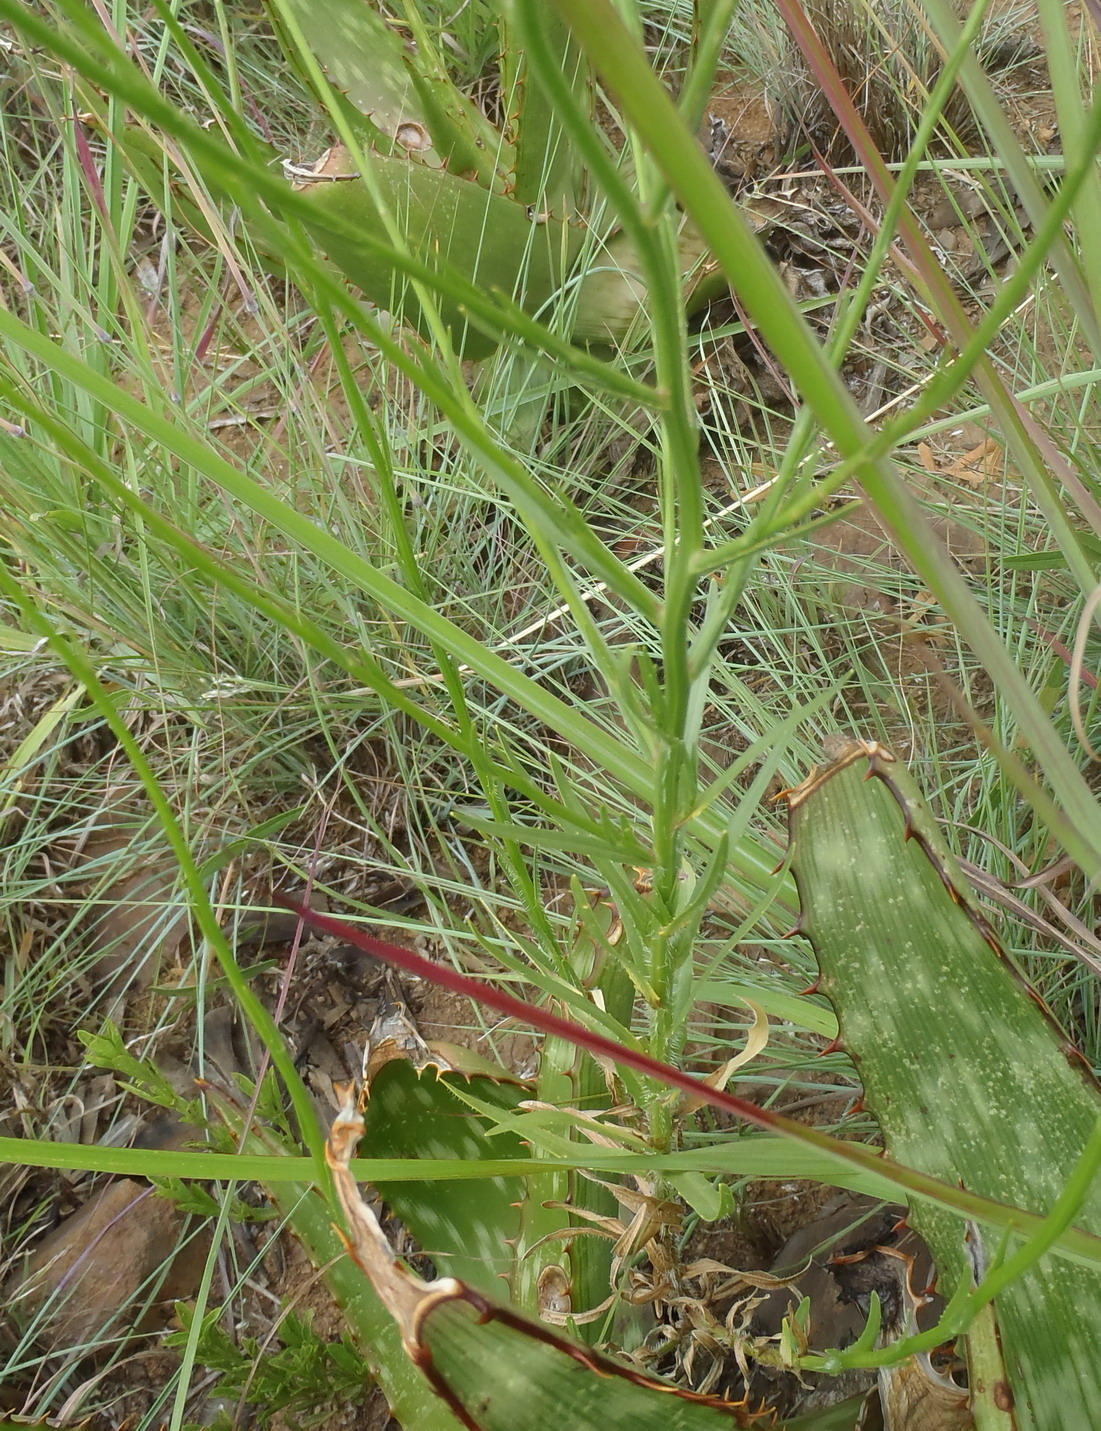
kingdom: Plantae
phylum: Tracheophyta
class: Magnoliopsida
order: Asterales
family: Campanulaceae
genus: Wahlenbergia
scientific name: Wahlenbergia undulata
